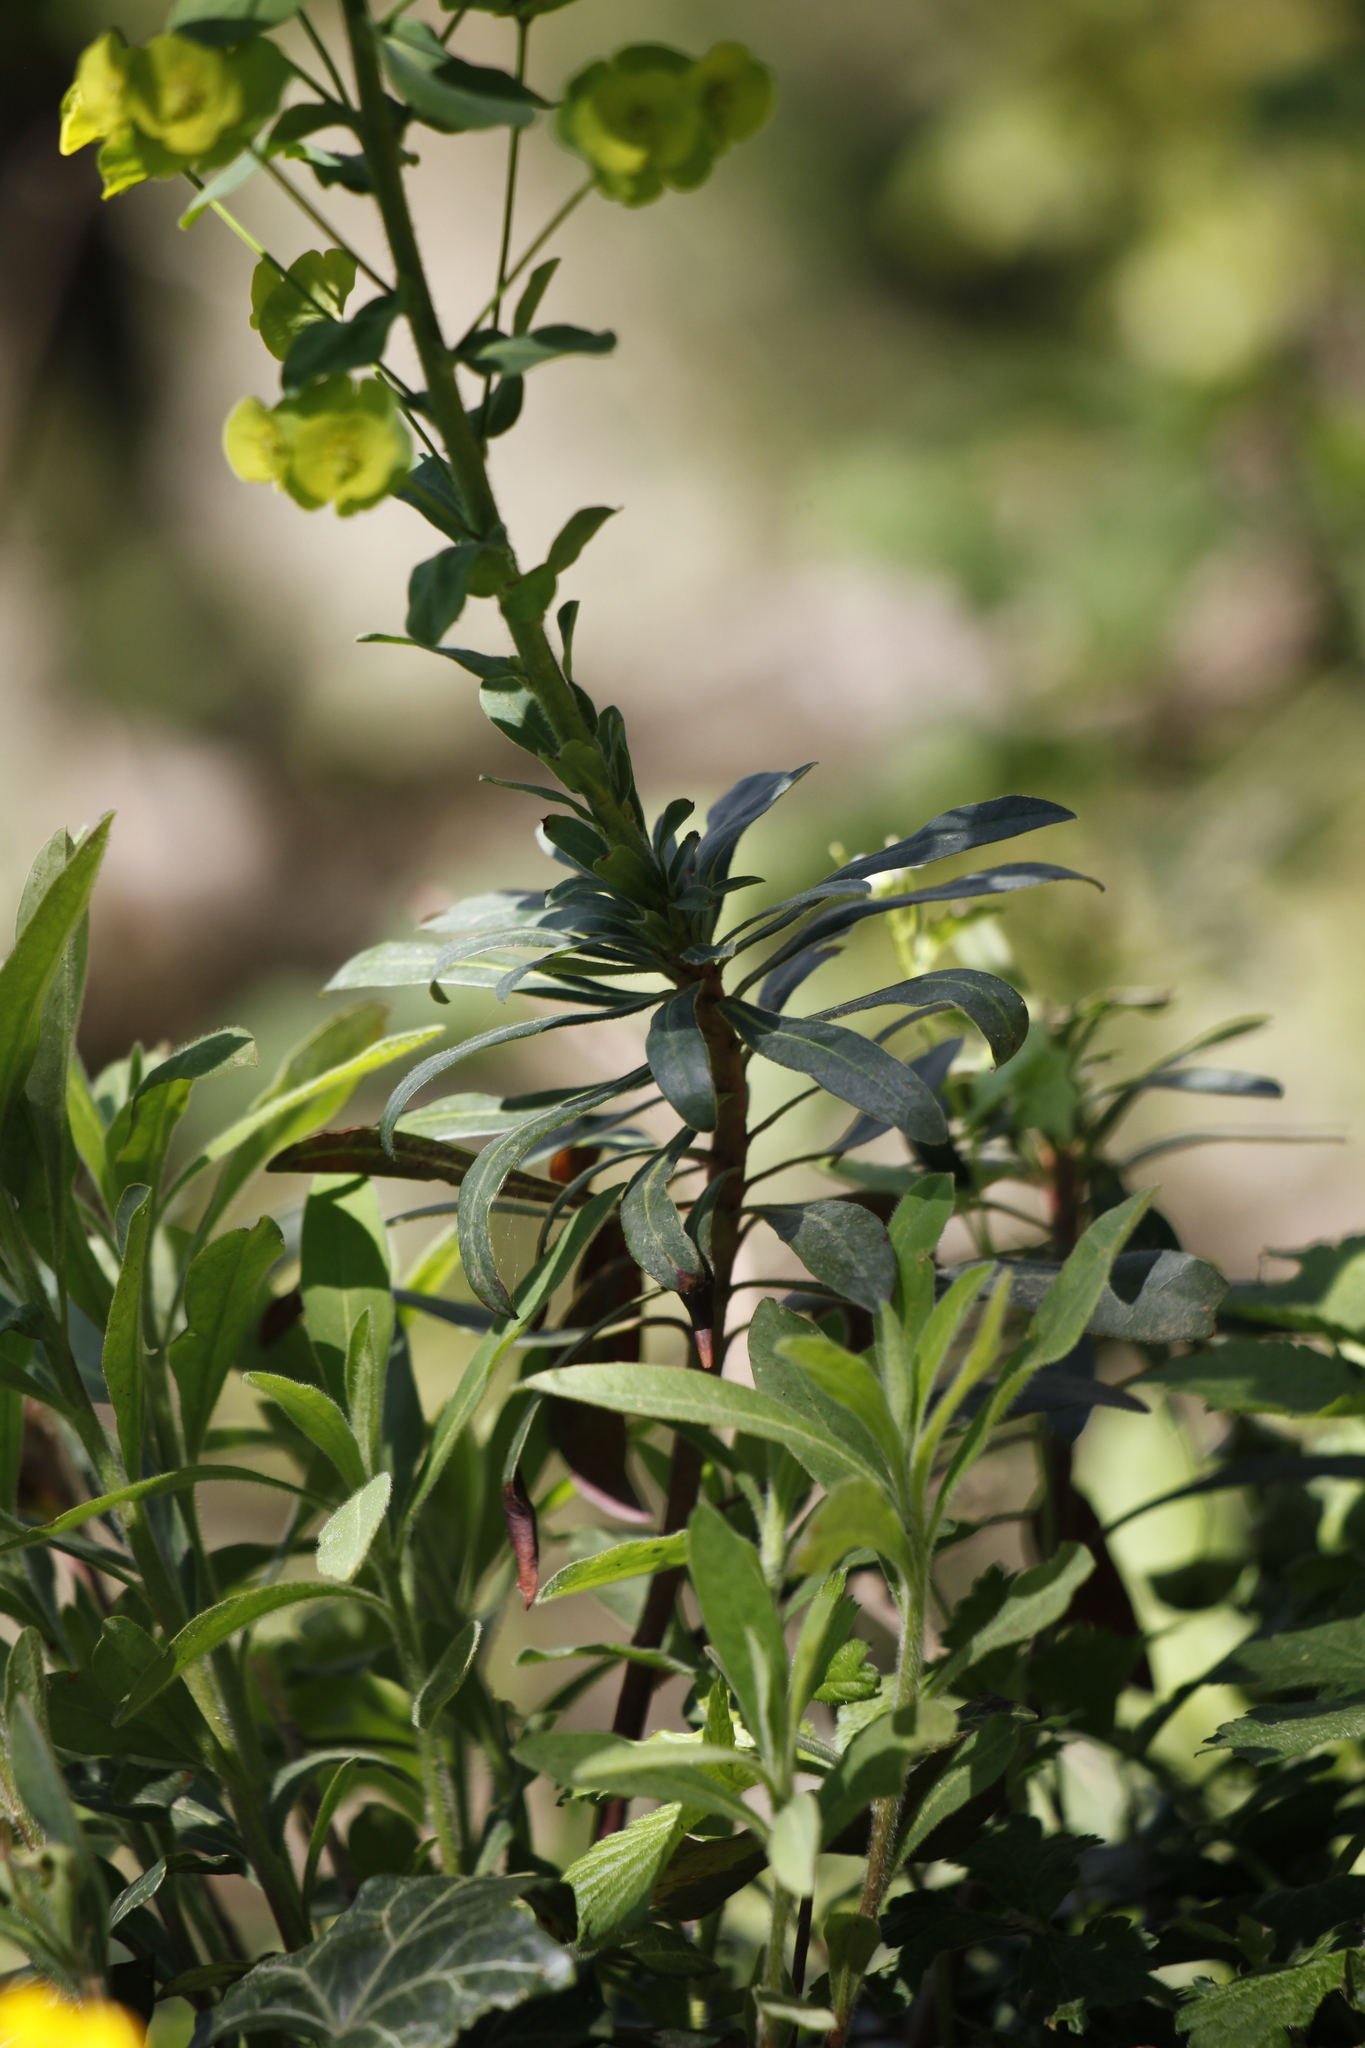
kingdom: Plantae
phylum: Tracheophyta
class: Magnoliopsida
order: Malpighiales
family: Euphorbiaceae
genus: Euphorbia
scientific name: Euphorbia amygdaloides
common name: Wood spurge
